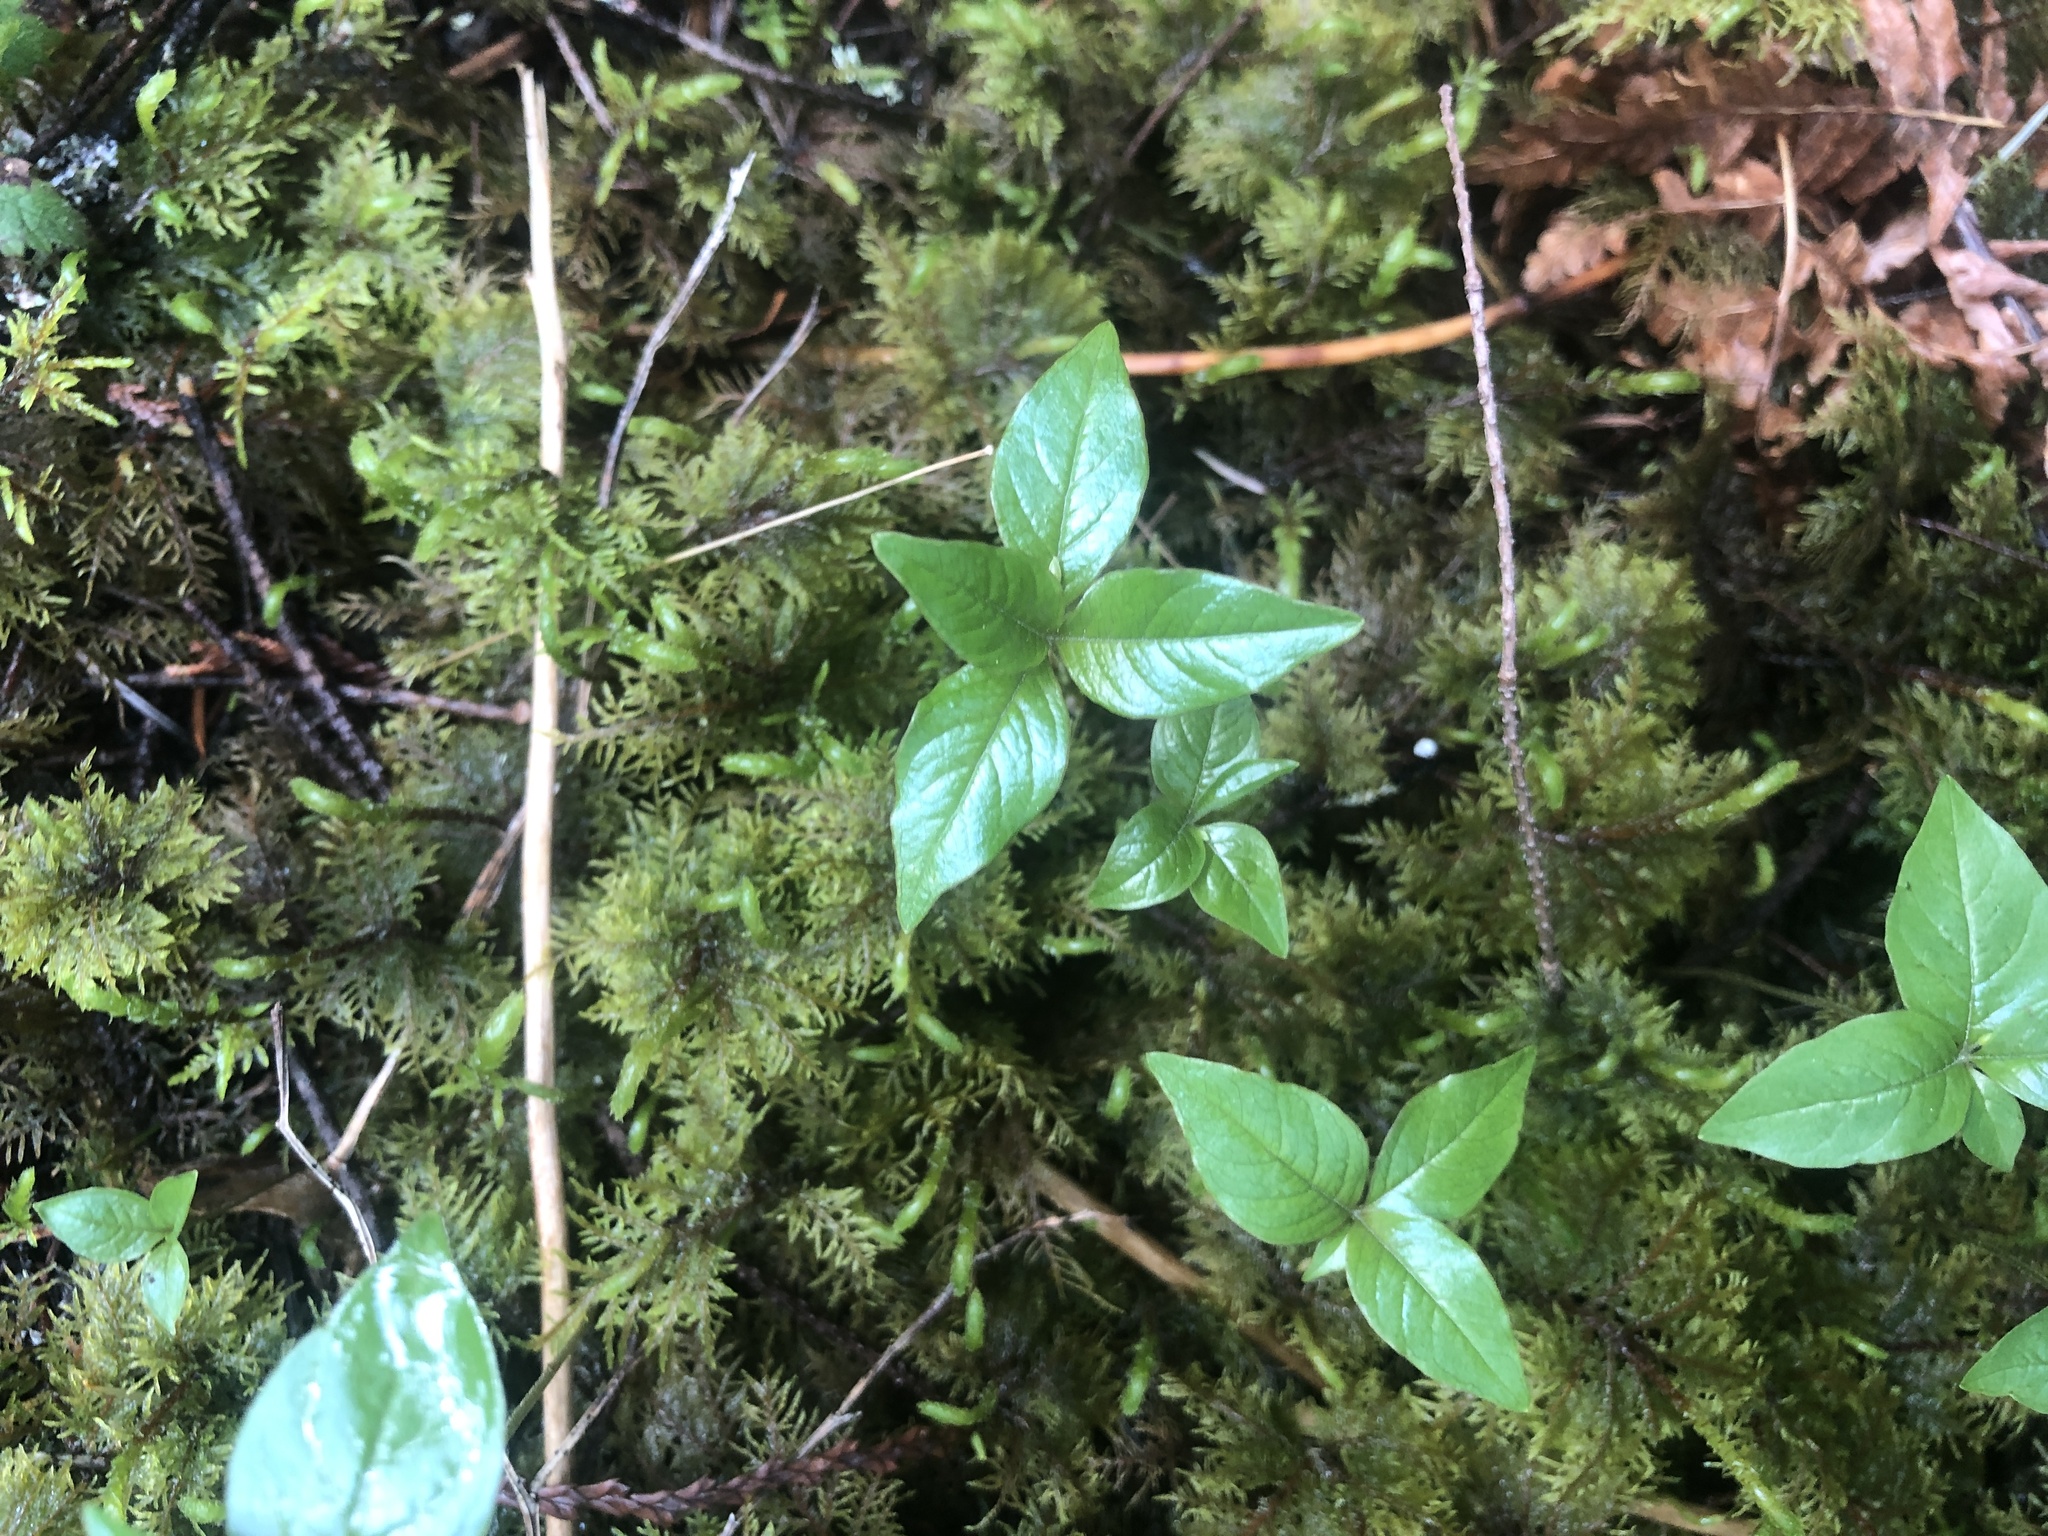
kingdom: Plantae
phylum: Tracheophyta
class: Magnoliopsida
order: Ericales
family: Primulaceae
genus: Lysimachia
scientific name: Lysimachia latifolia
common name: Pacific starflower
